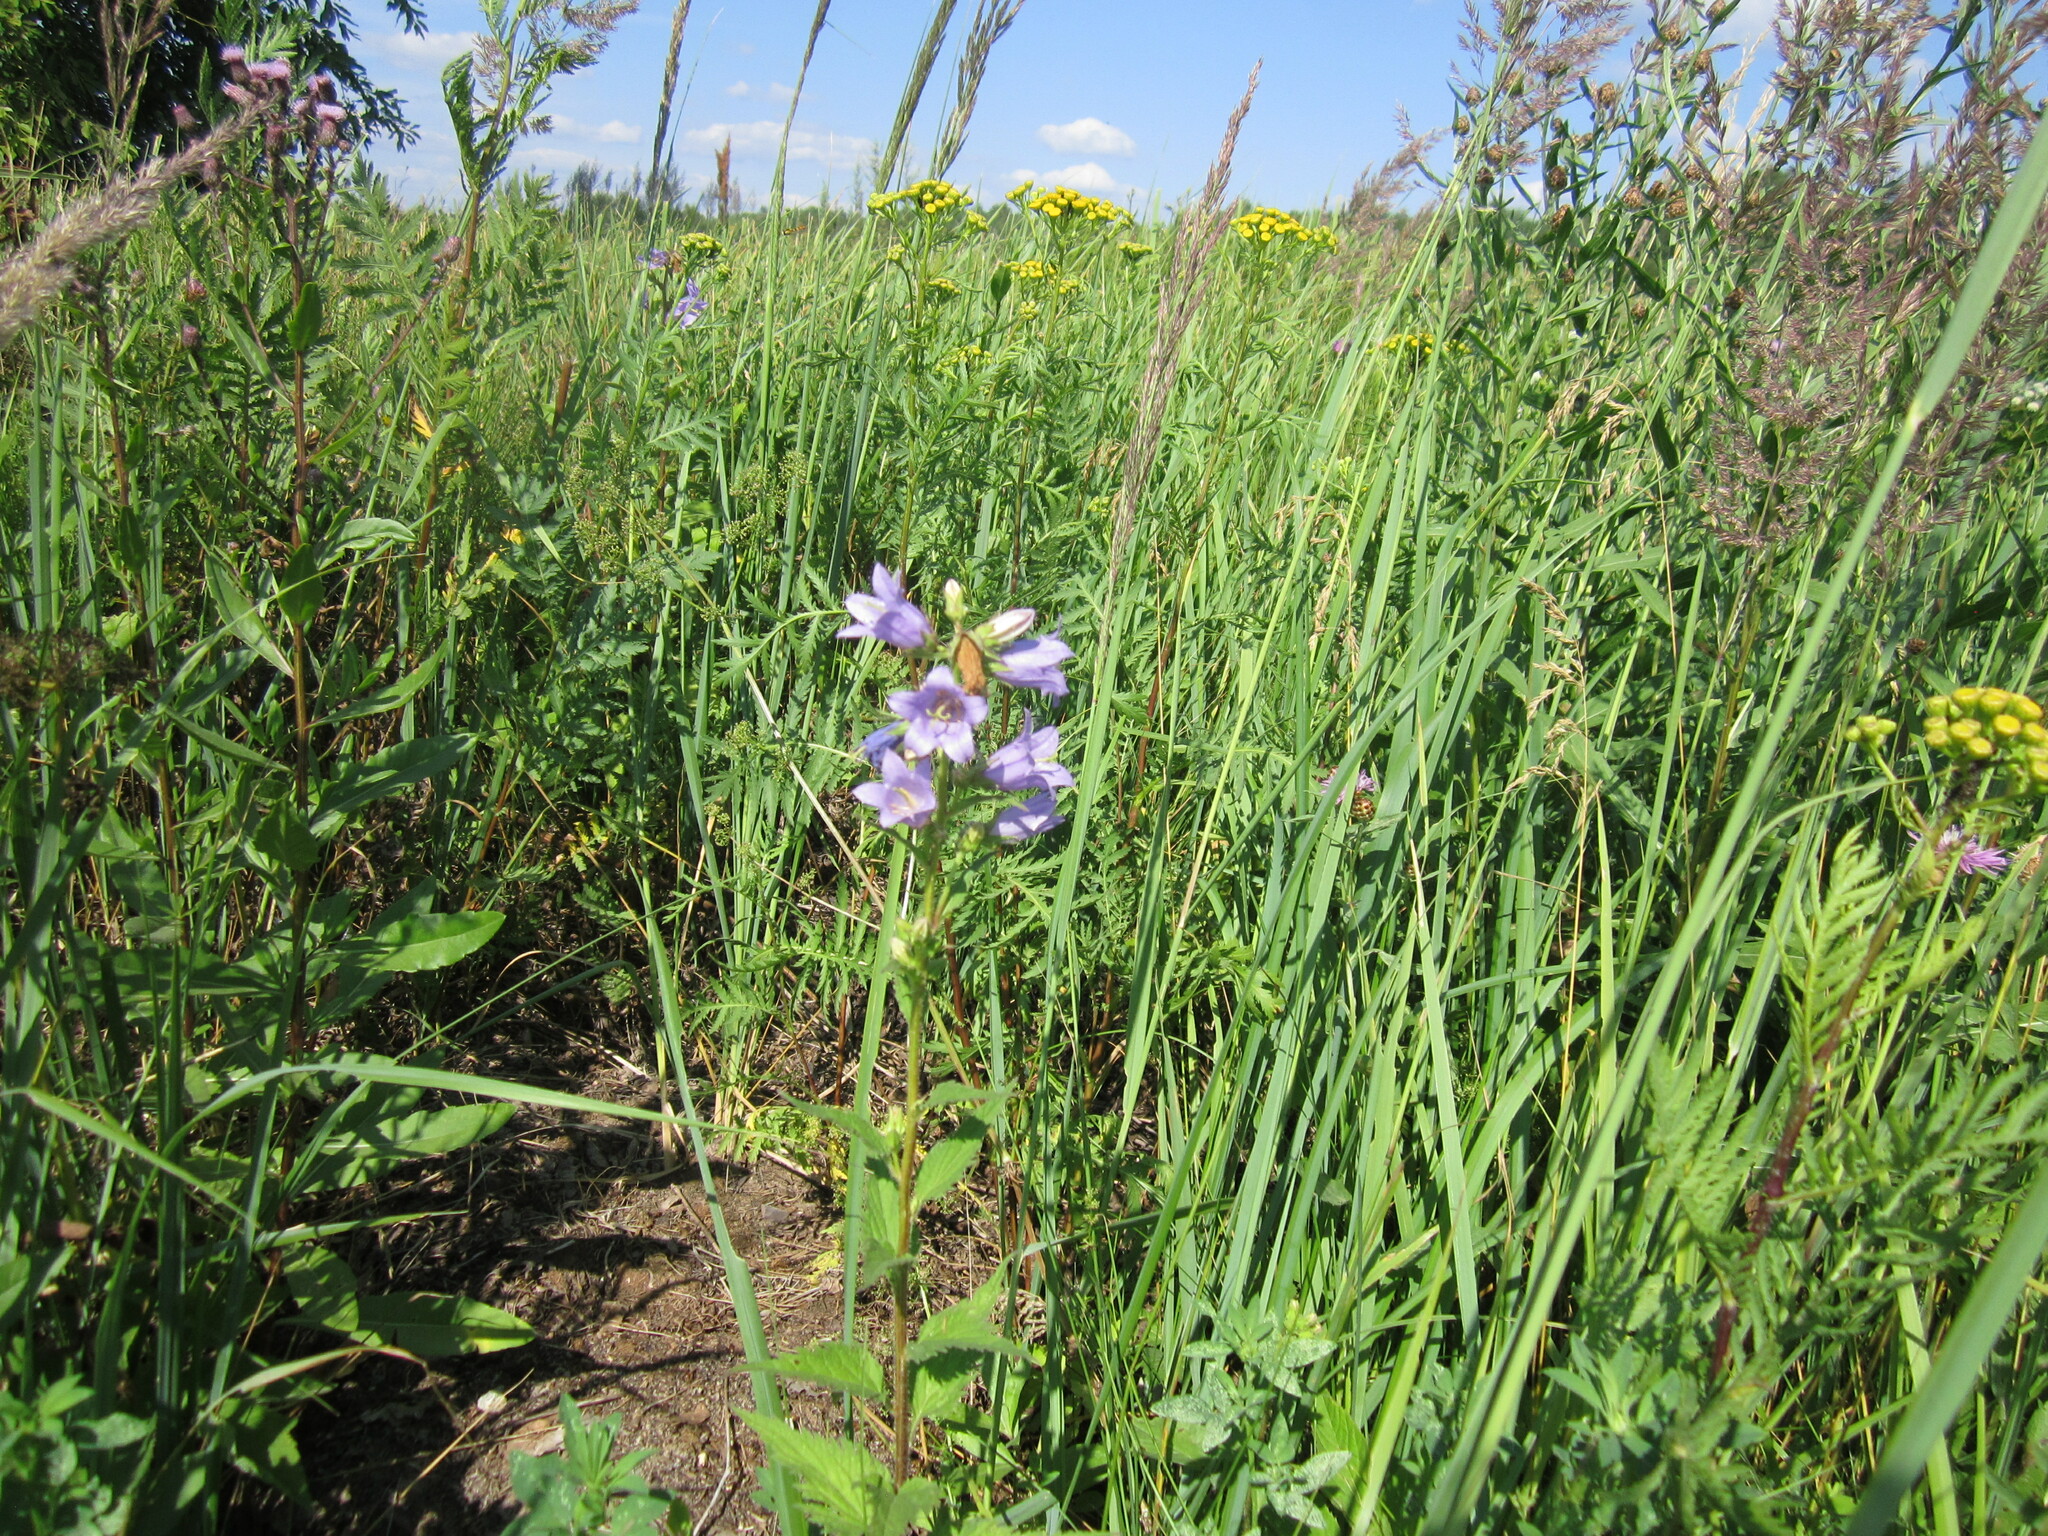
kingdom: Plantae
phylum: Tracheophyta
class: Magnoliopsida
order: Asterales
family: Campanulaceae
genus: Campanula
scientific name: Campanula trachelium
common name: Nettle-leaved bellflower
